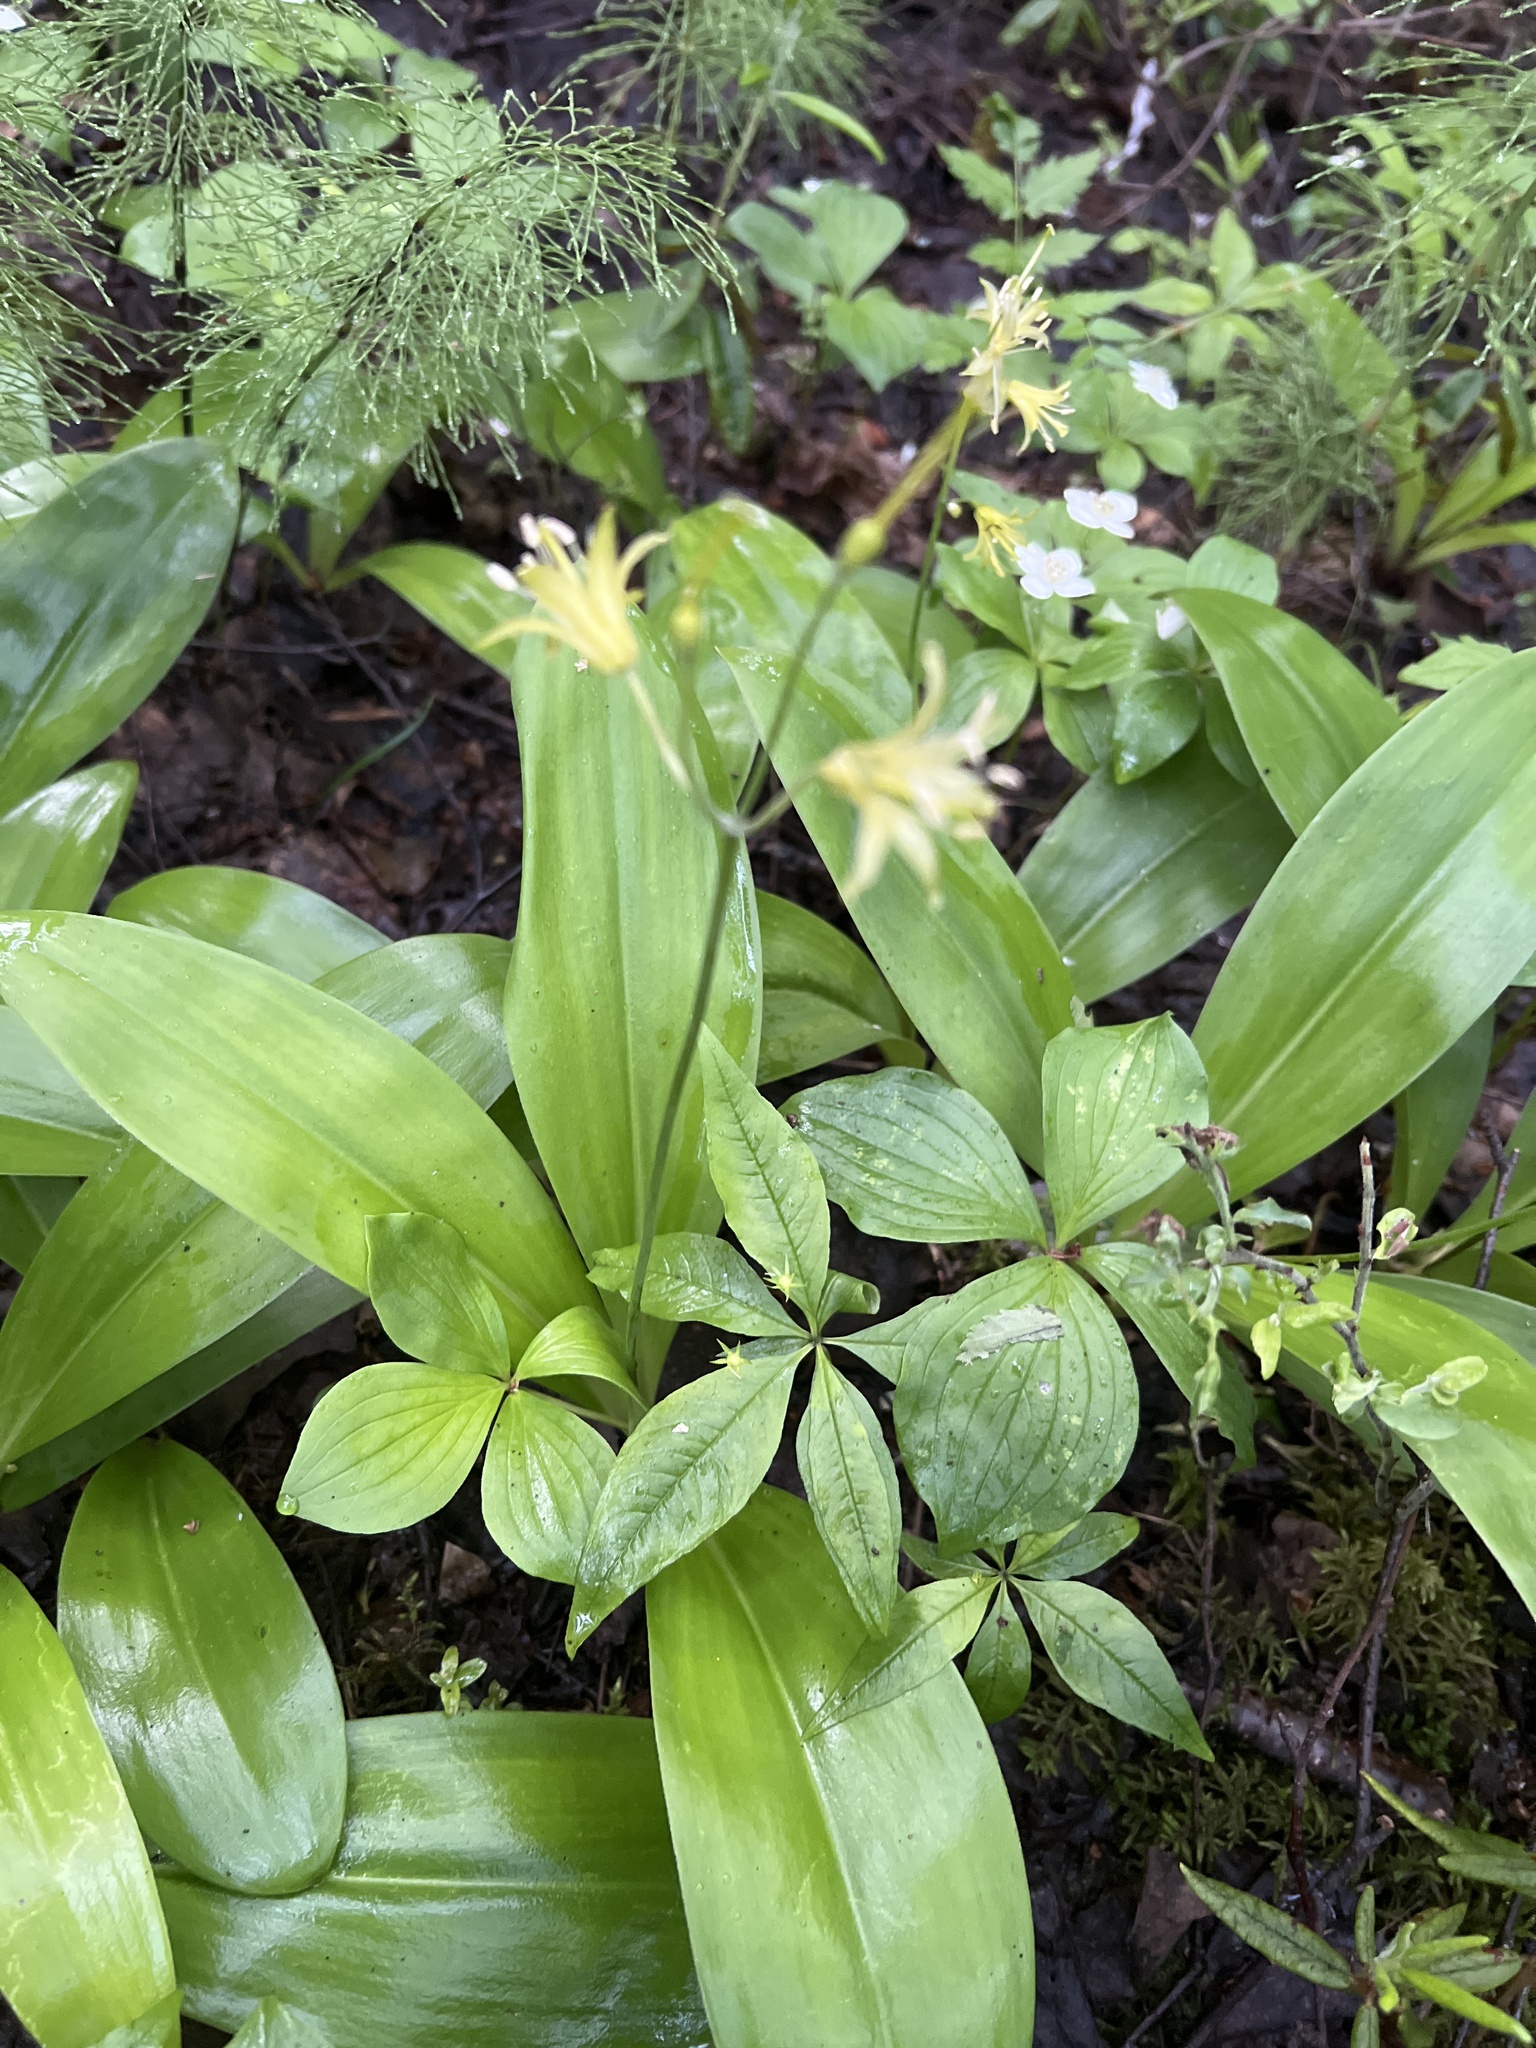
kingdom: Plantae
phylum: Tracheophyta
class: Liliopsida
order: Liliales
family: Liliaceae
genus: Clintonia
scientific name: Clintonia borealis
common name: Yellow clintonia
